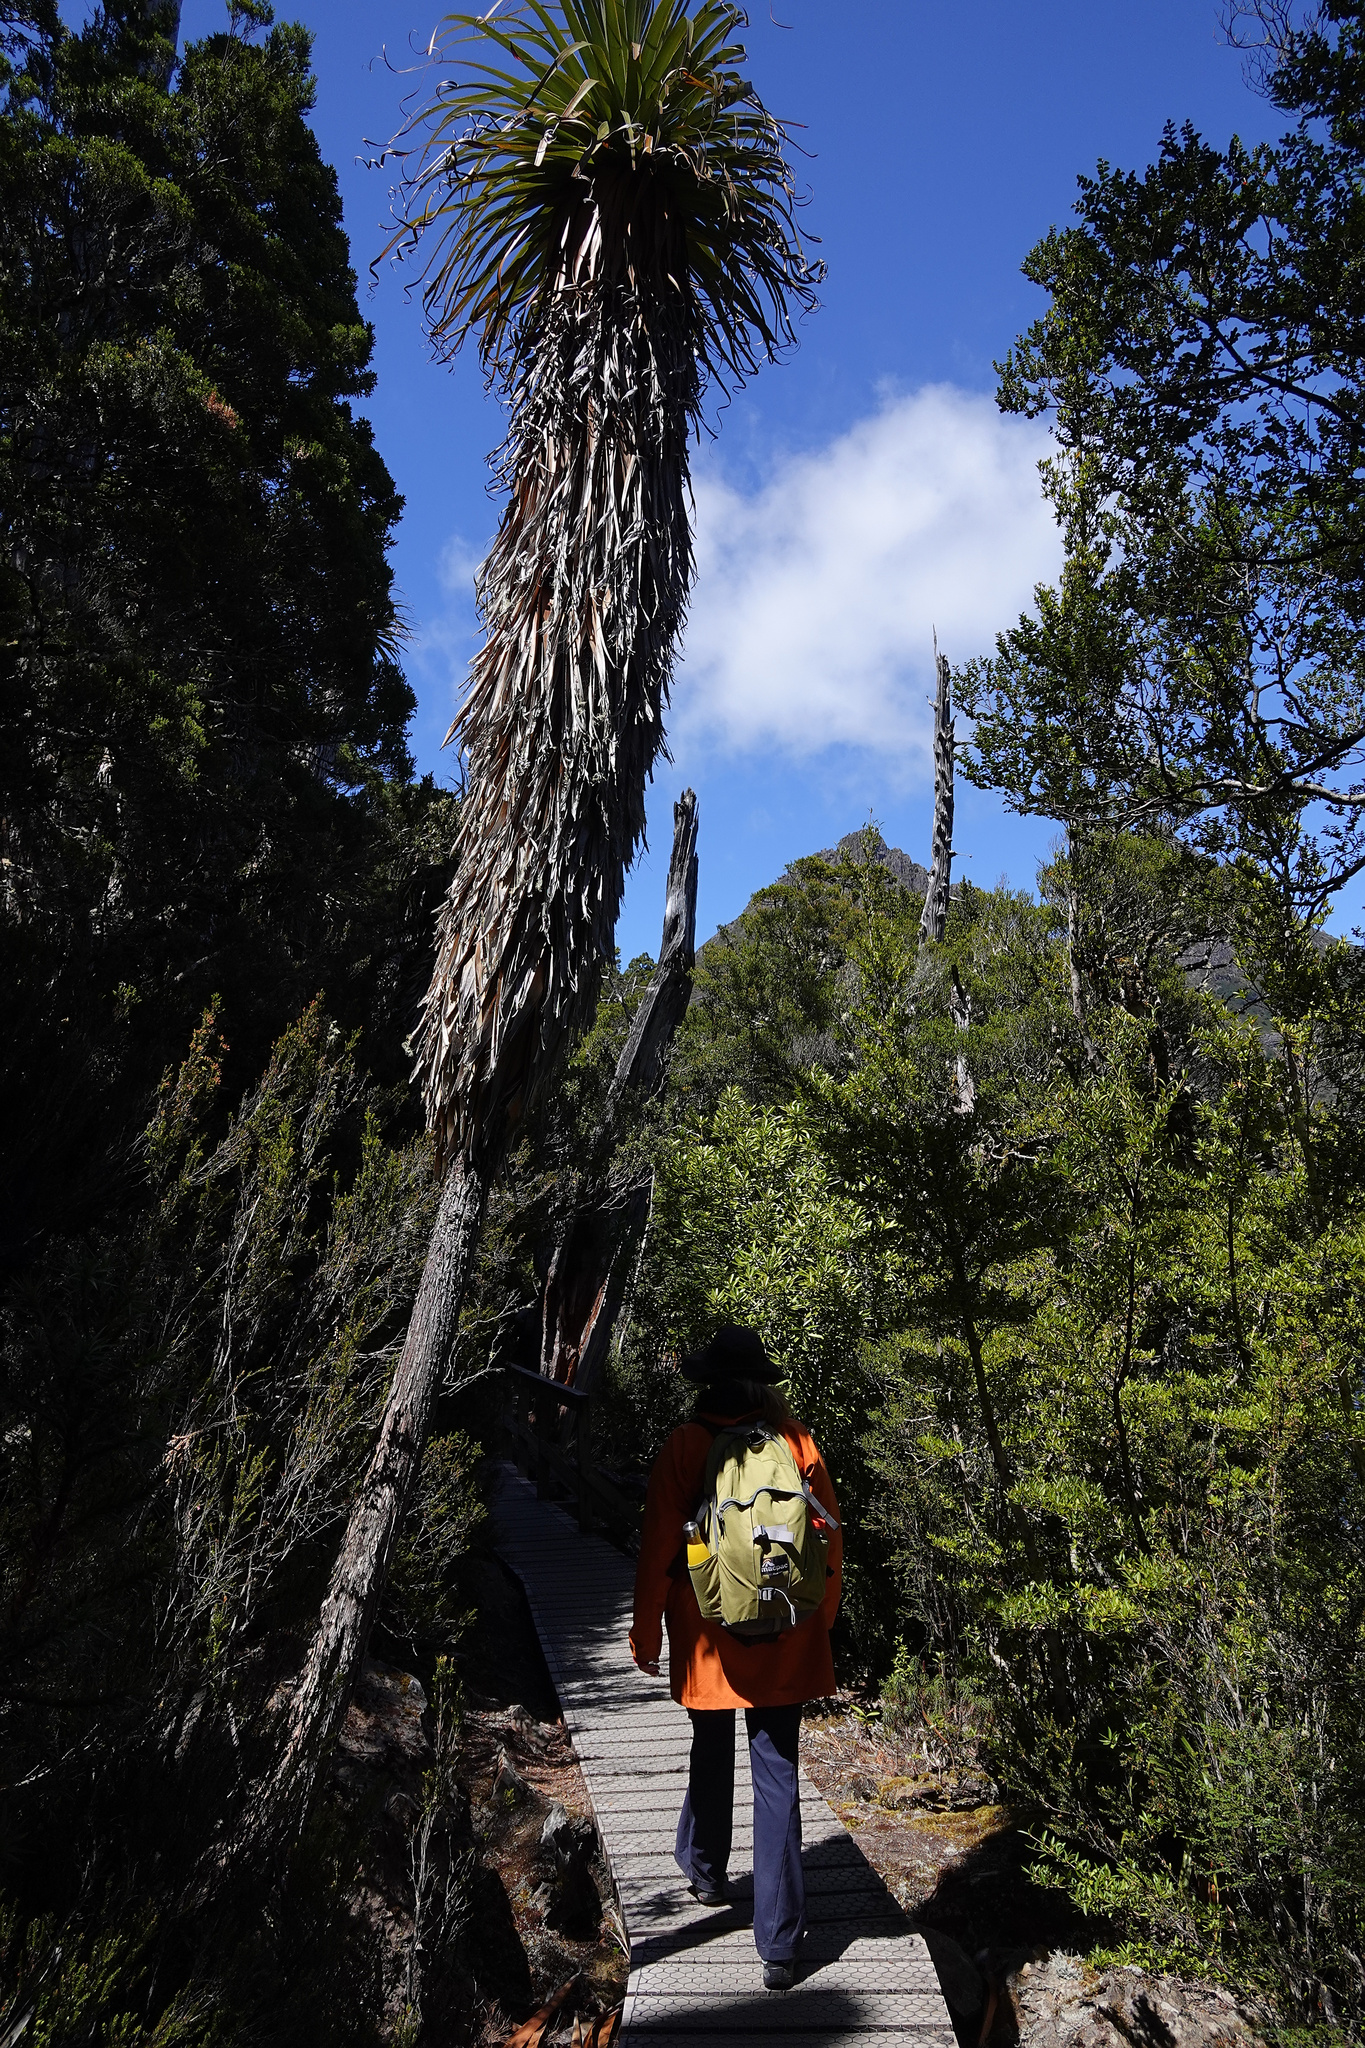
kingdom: Plantae
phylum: Tracheophyta
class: Magnoliopsida
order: Ericales
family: Ericaceae
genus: Dracophyllum
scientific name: Dracophyllum pandanifolium
